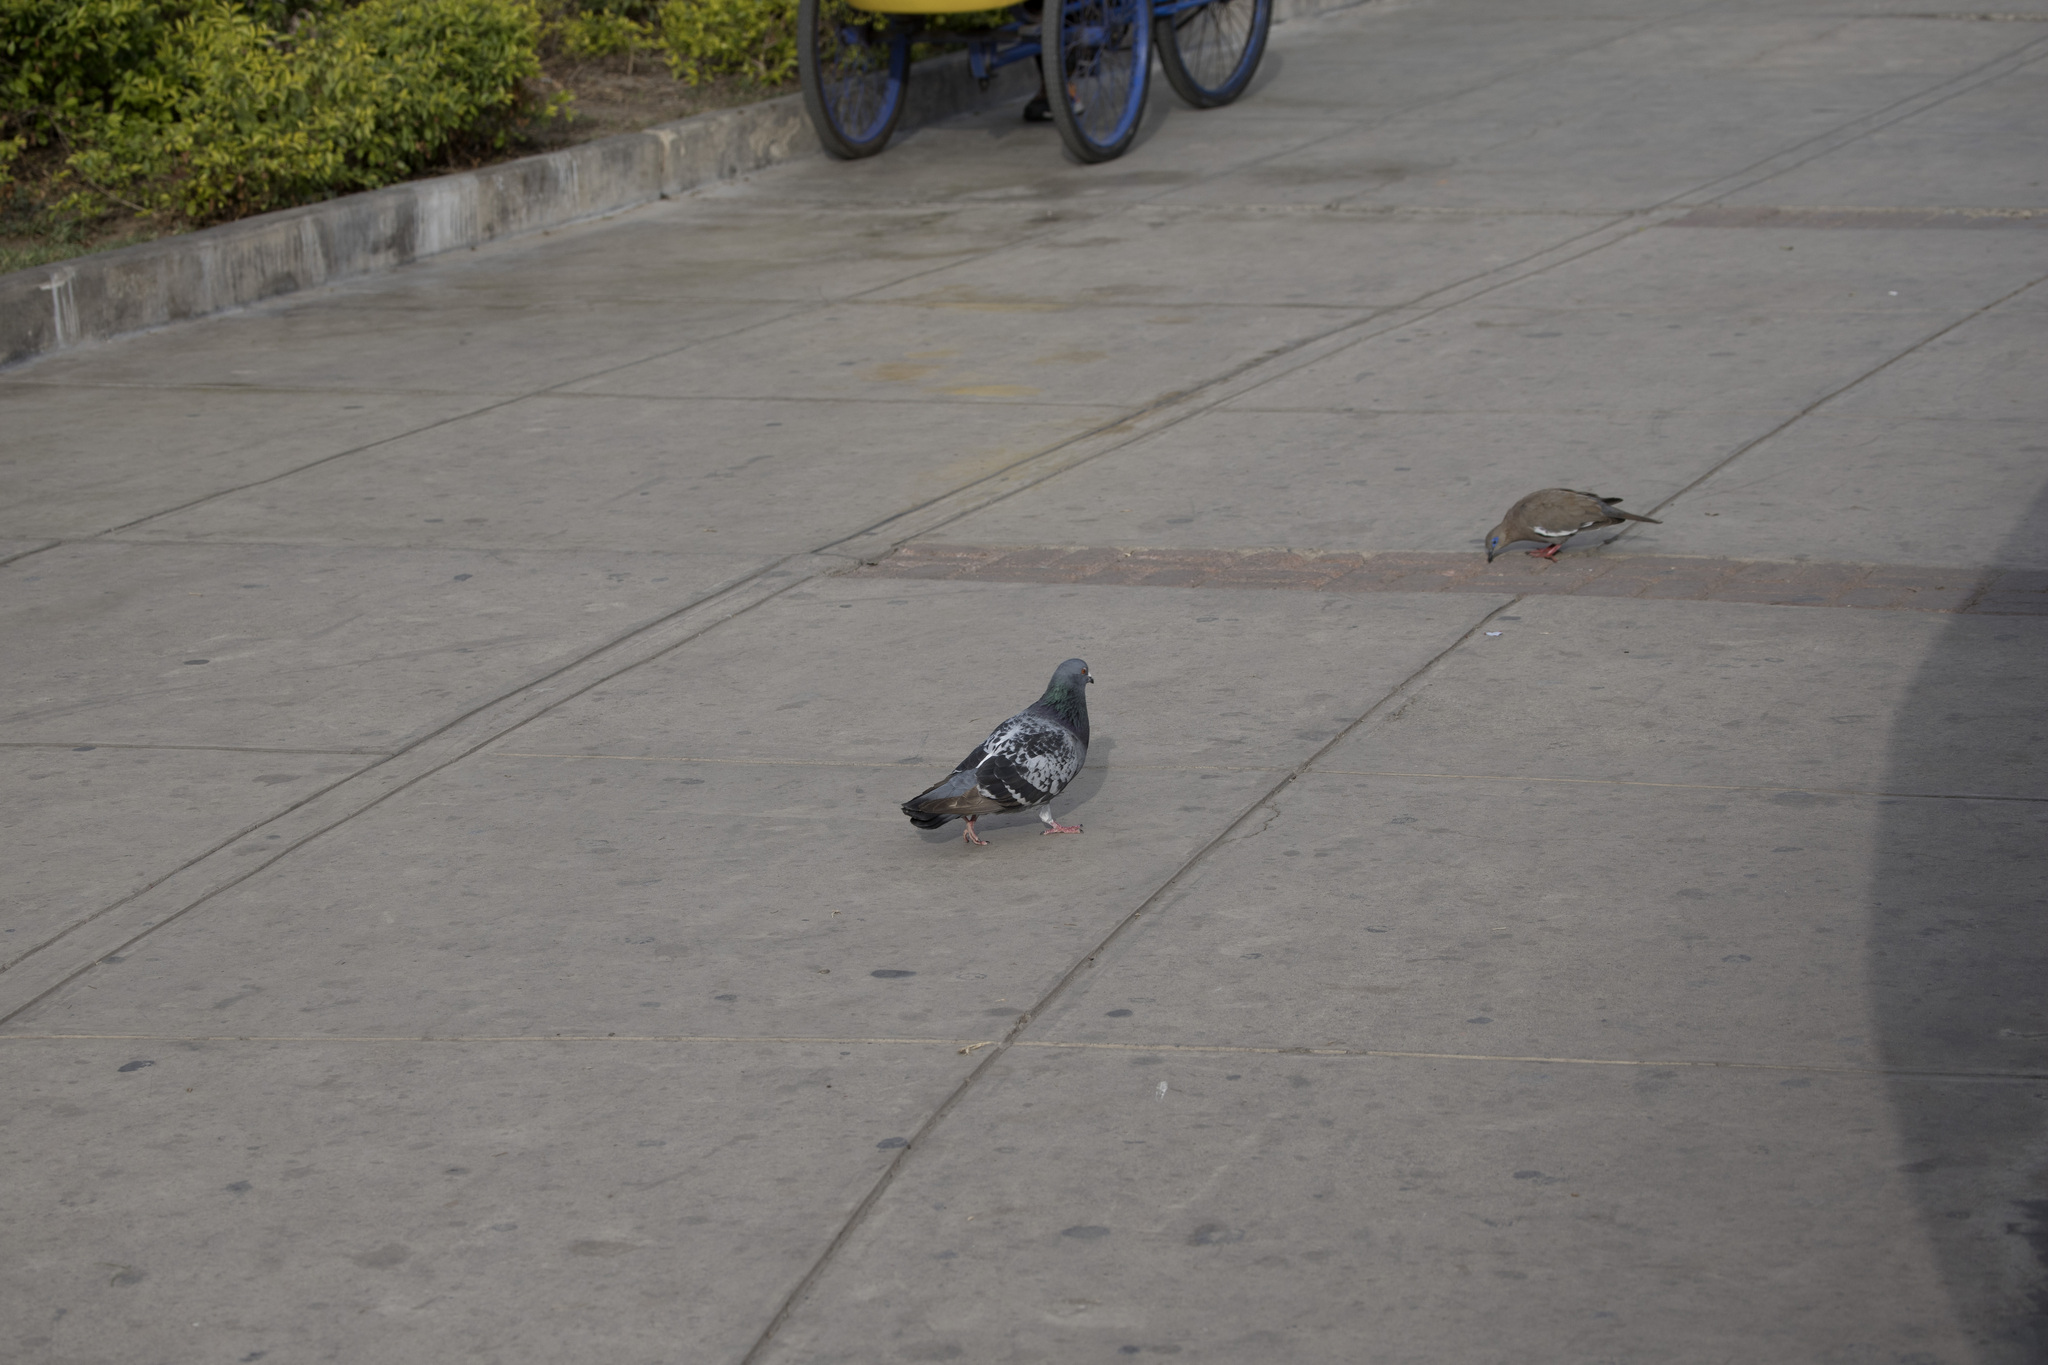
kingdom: Animalia
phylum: Chordata
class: Aves
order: Columbiformes
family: Columbidae
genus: Zenaida
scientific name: Zenaida meloda
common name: West peruvian dove
